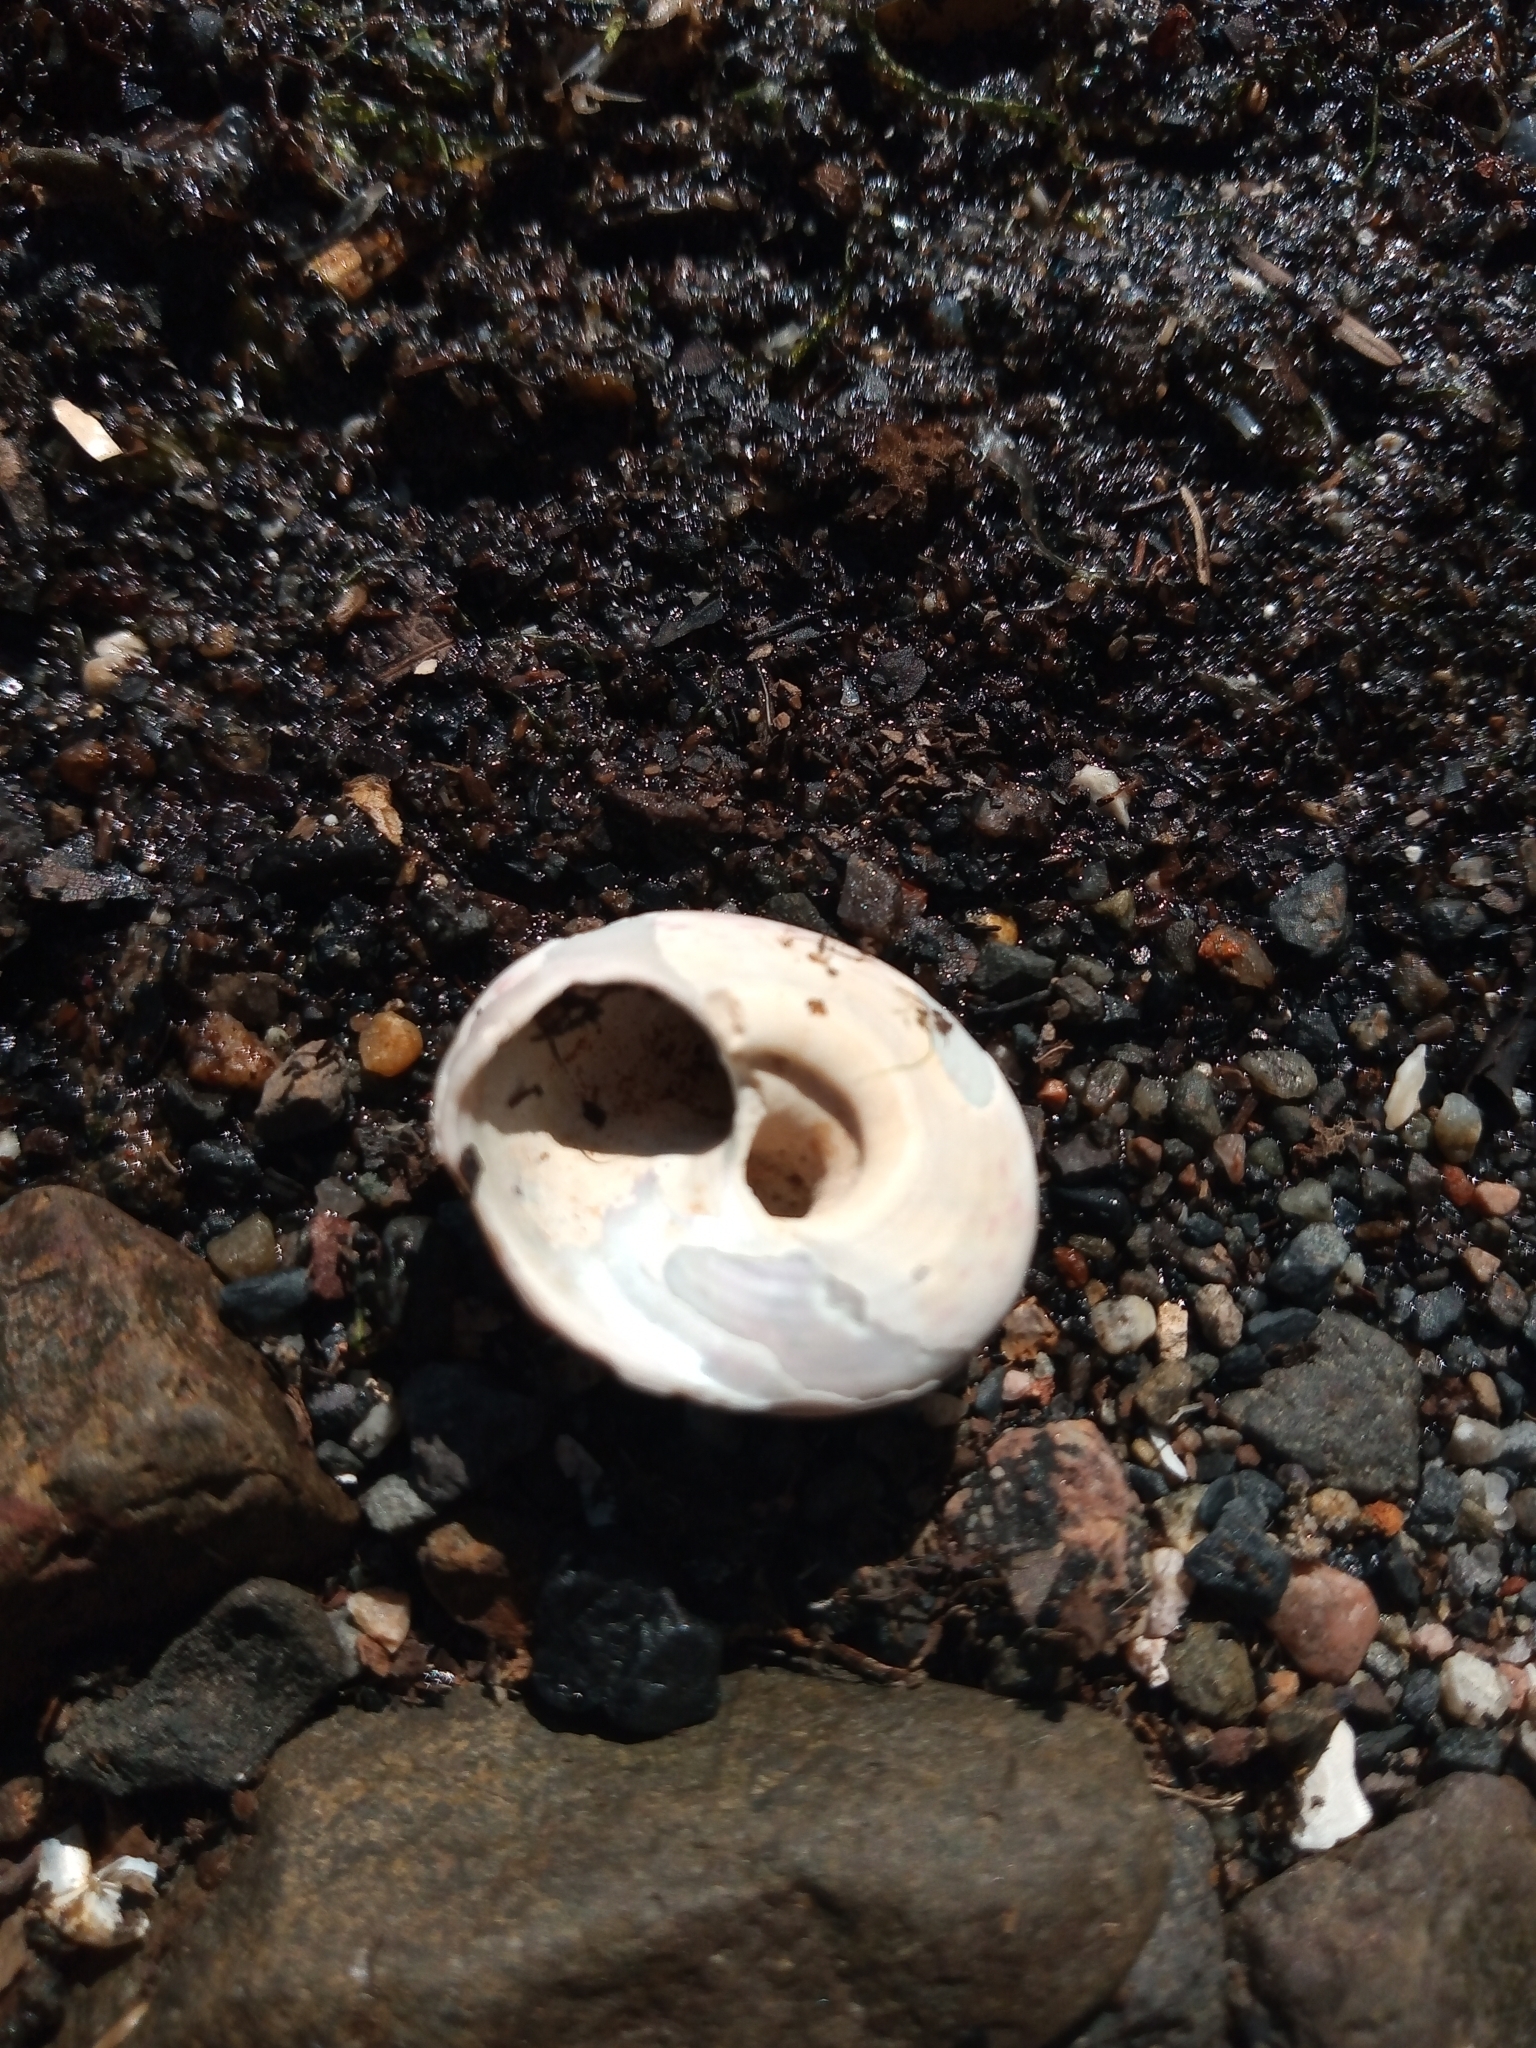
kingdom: Animalia
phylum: Mollusca
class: Gastropoda
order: Trochida
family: Trochidae
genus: Gibbula
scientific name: Gibbula magus
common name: Turban top shell
